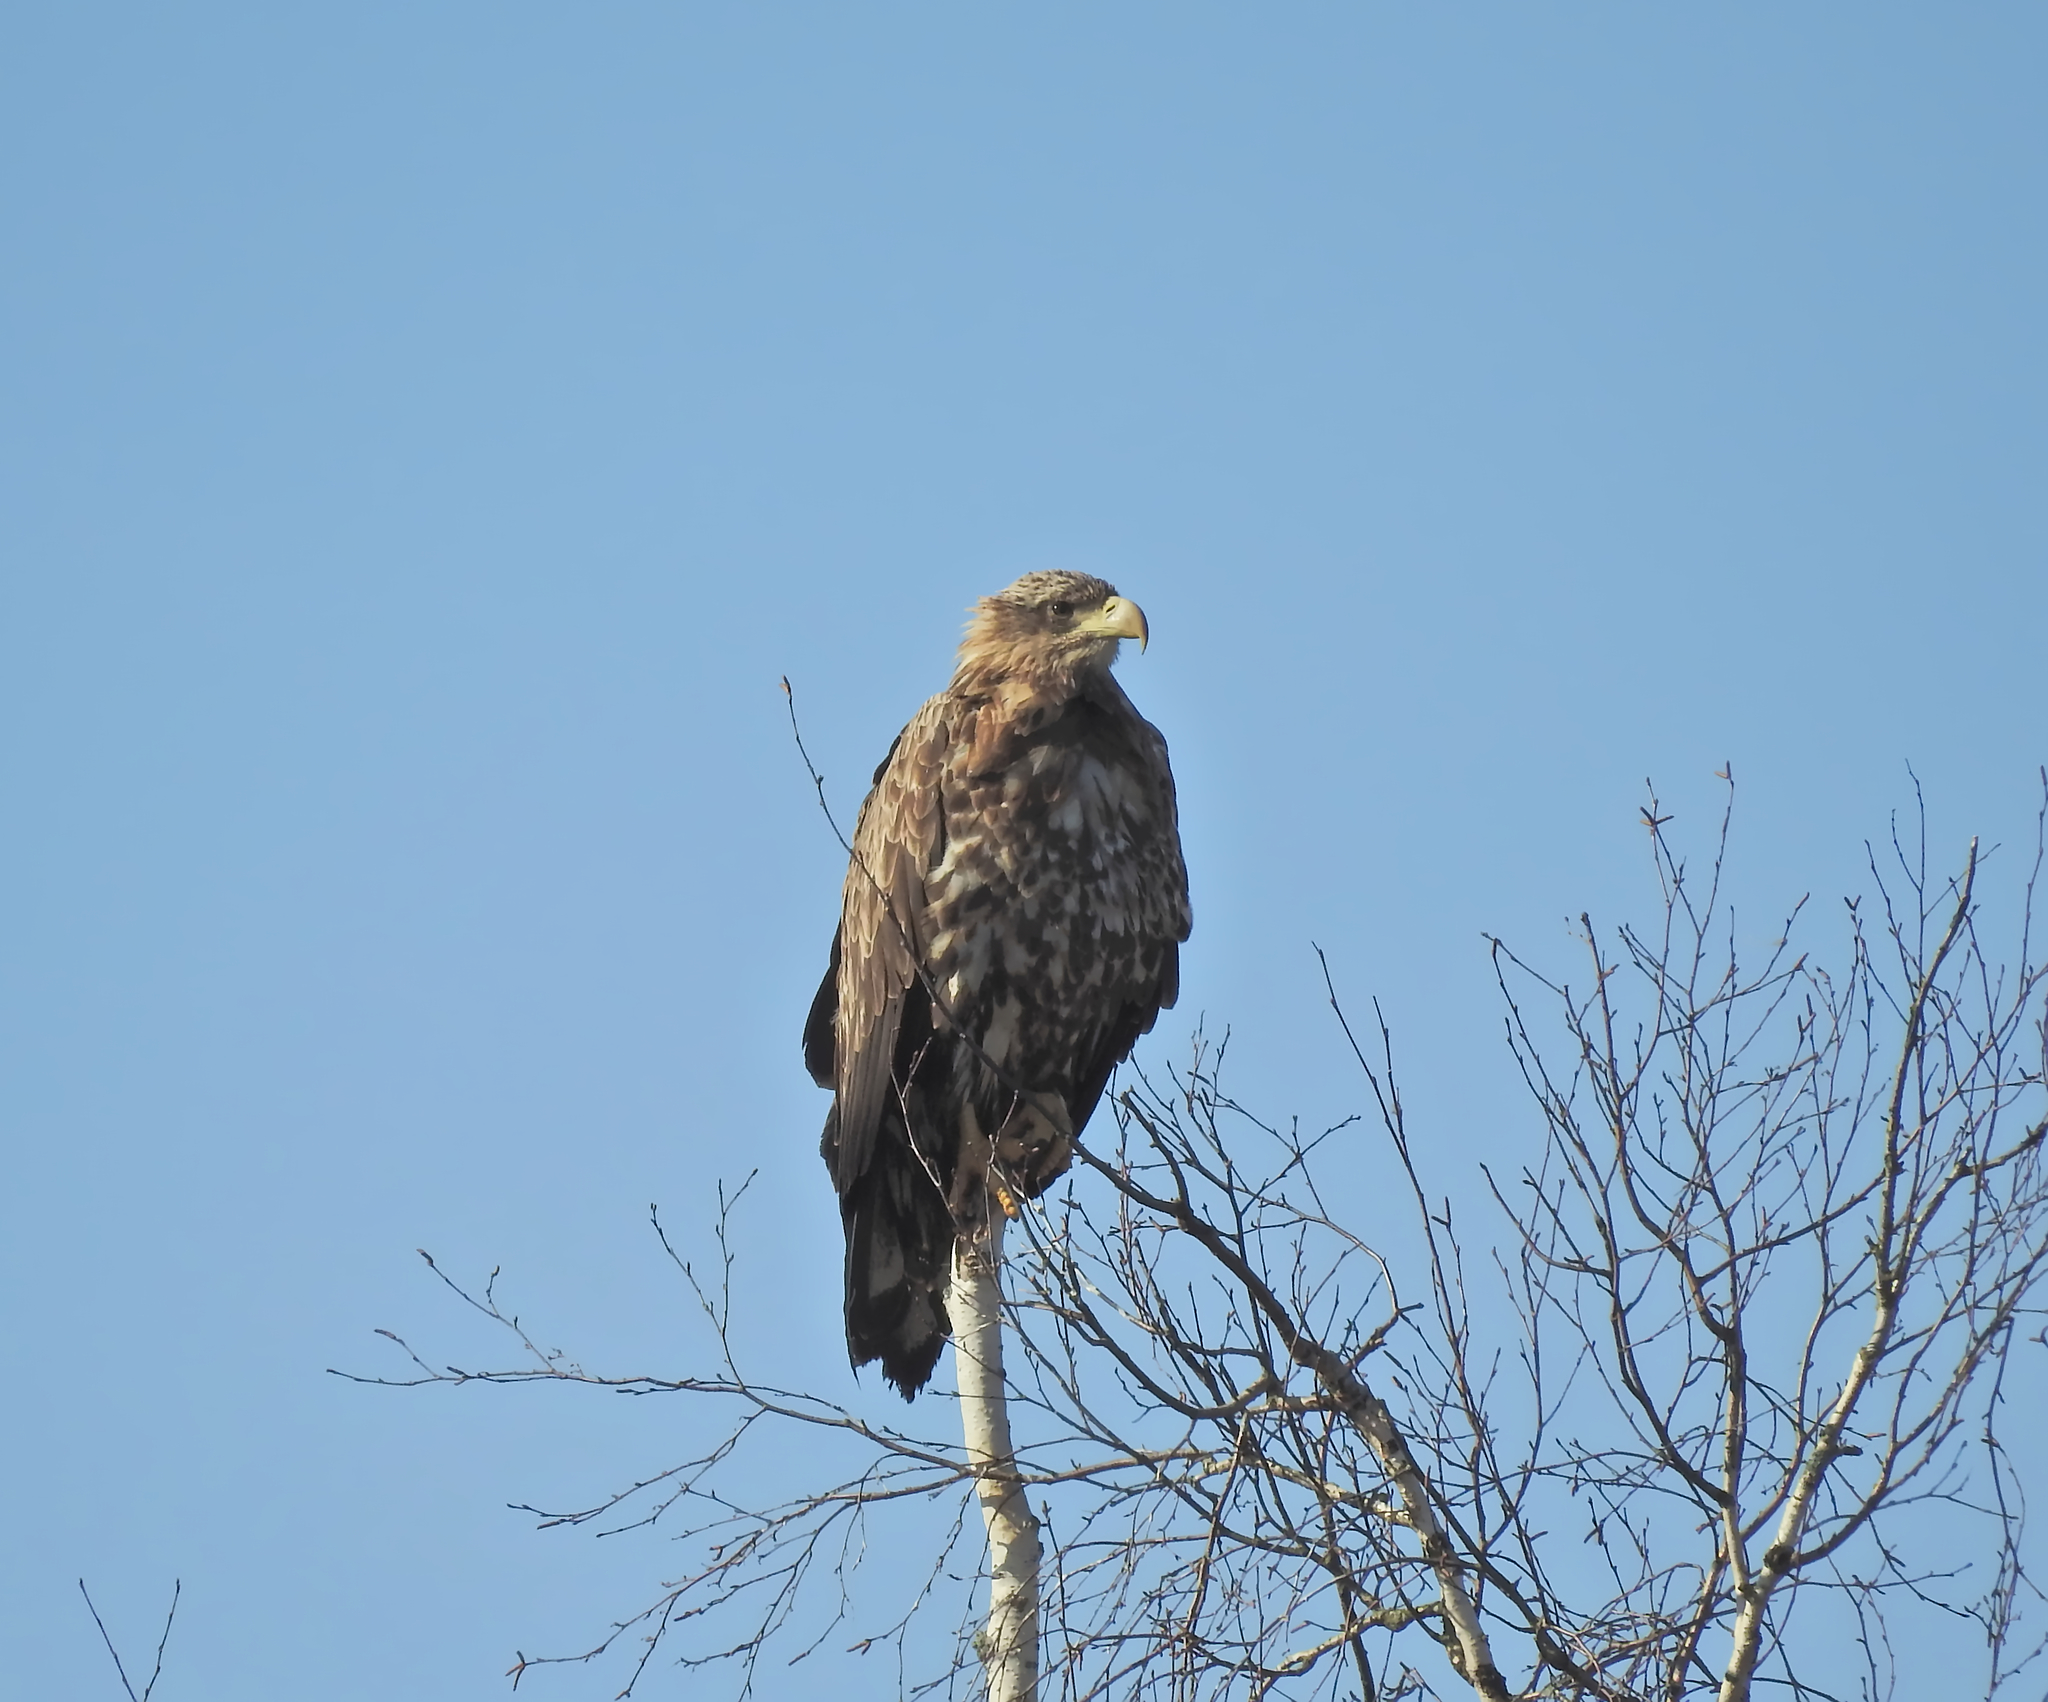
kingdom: Animalia
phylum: Chordata
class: Aves
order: Accipitriformes
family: Accipitridae
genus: Haliaeetus
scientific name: Haliaeetus albicilla
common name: White-tailed eagle
